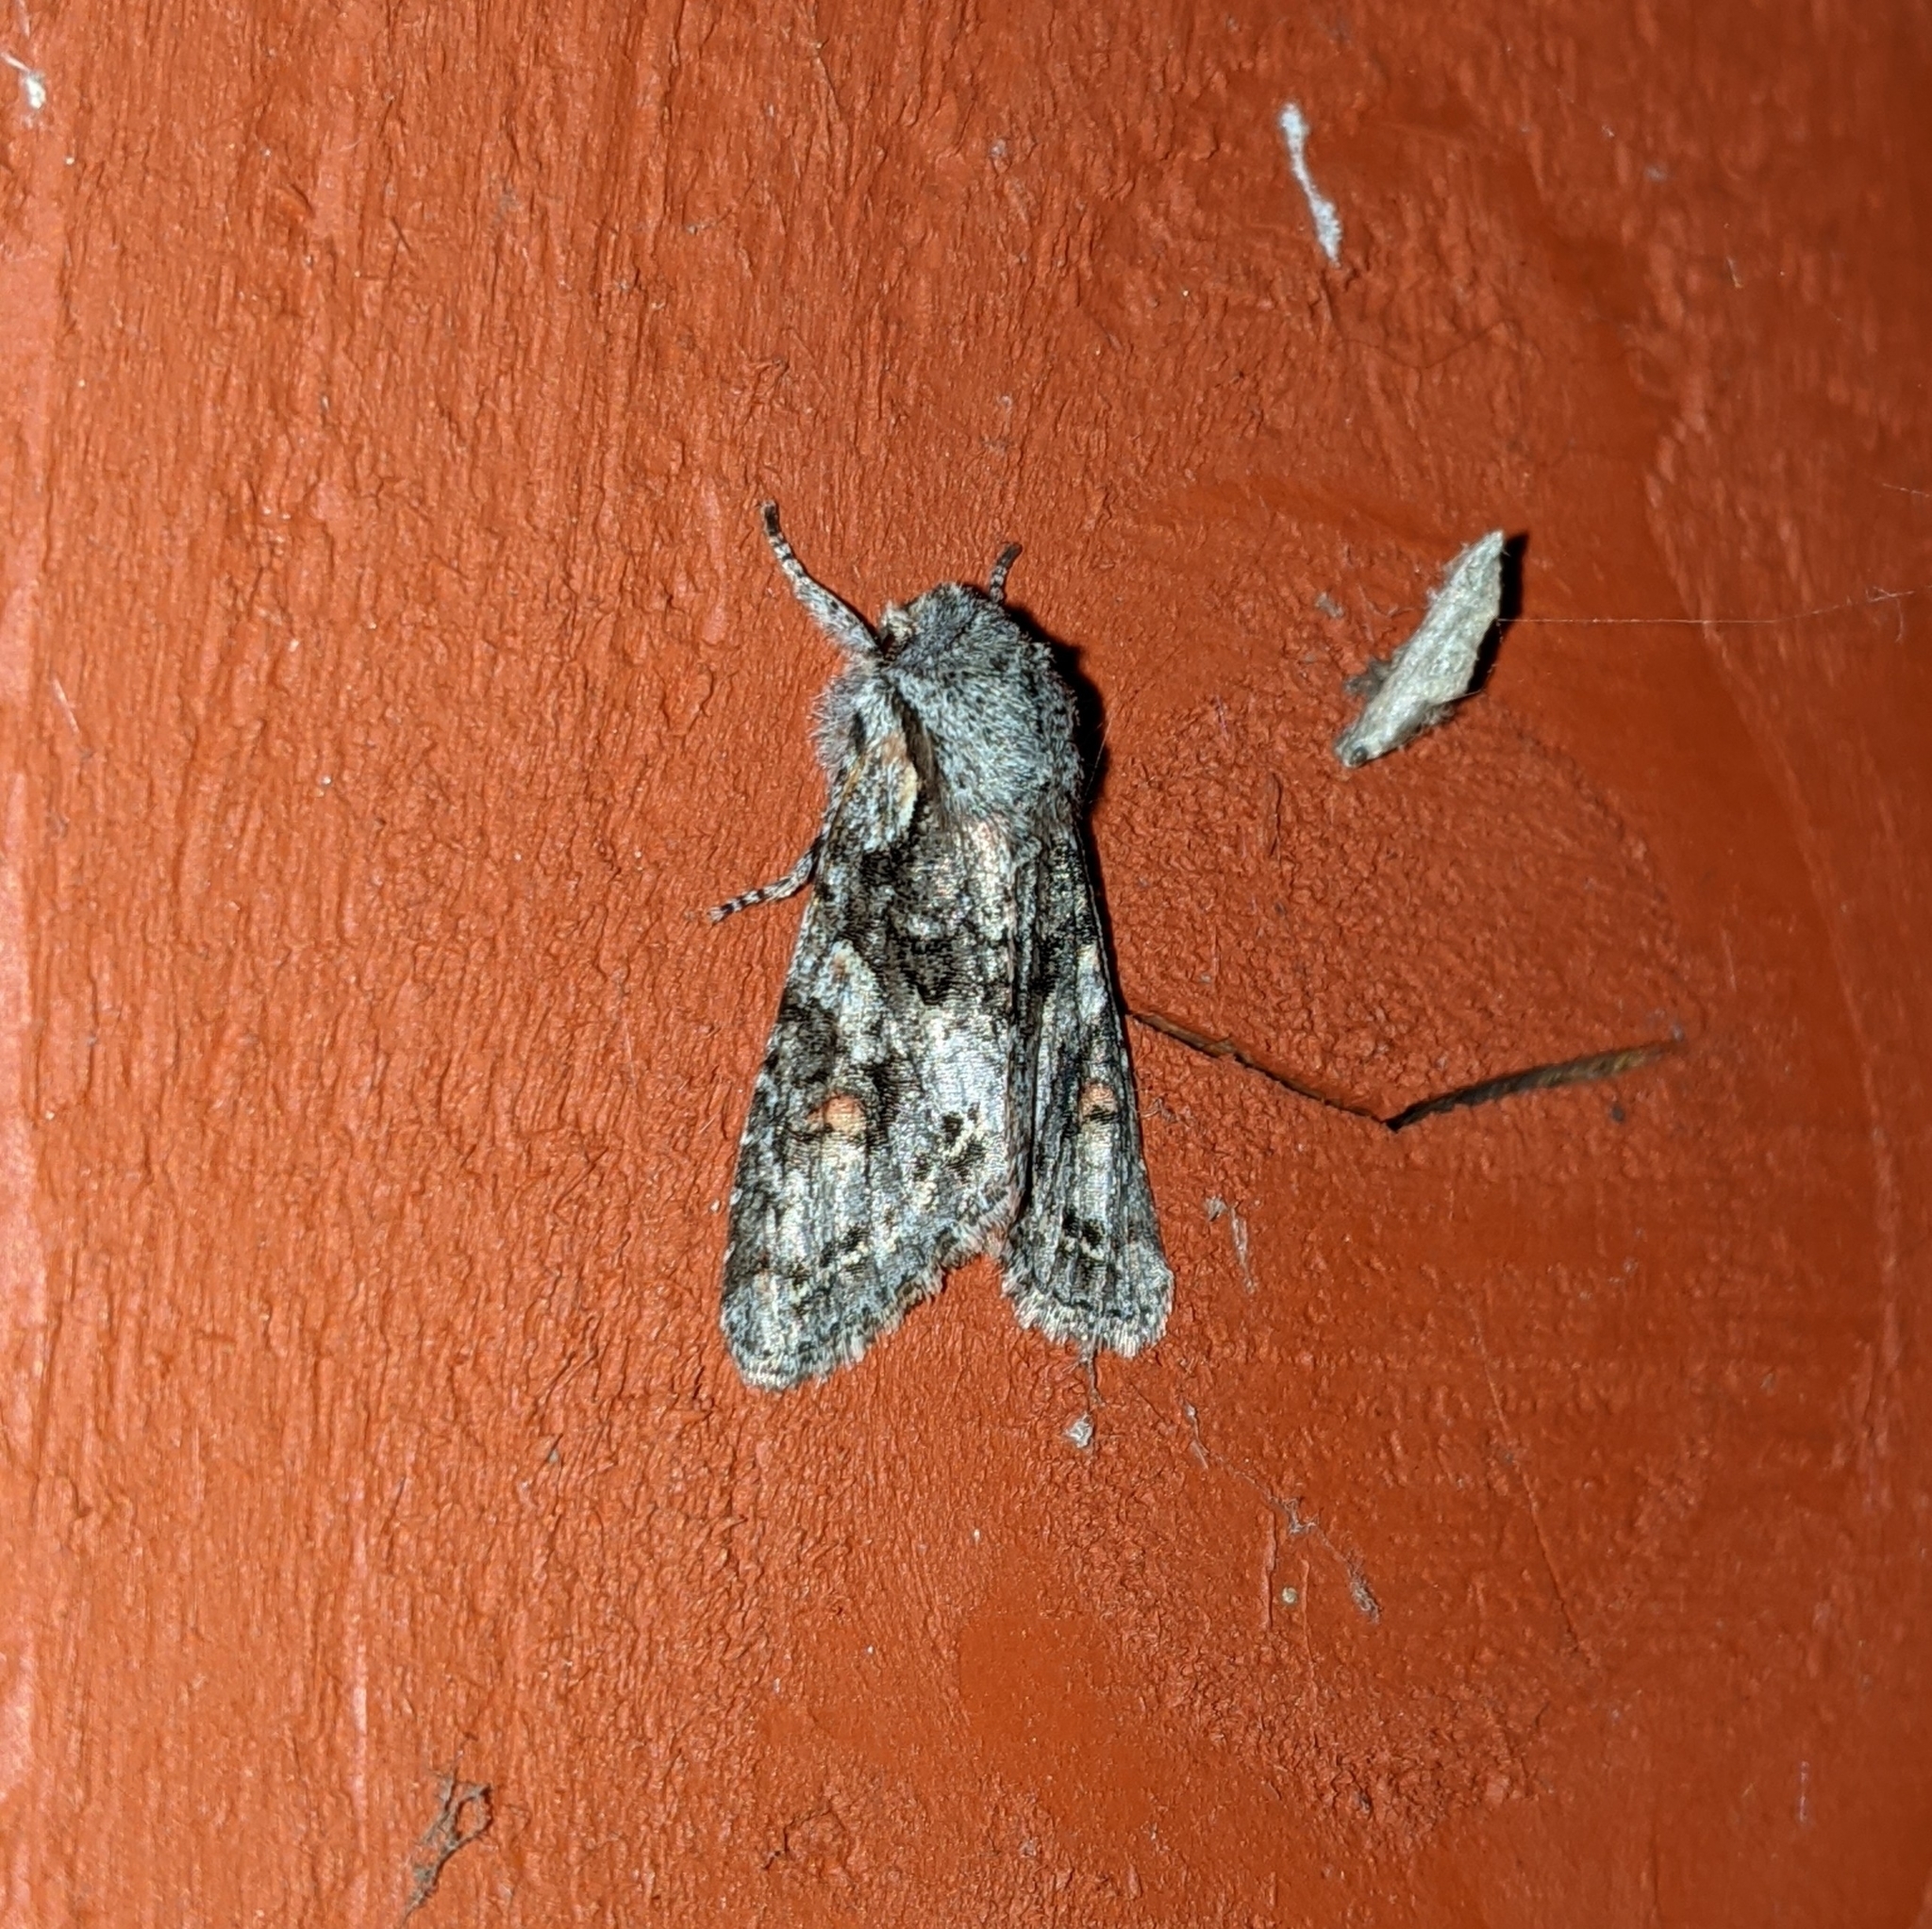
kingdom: Animalia
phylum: Arthropoda
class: Insecta
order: Lepidoptera
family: Noctuidae
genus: Egira
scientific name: Egira hiemalis
